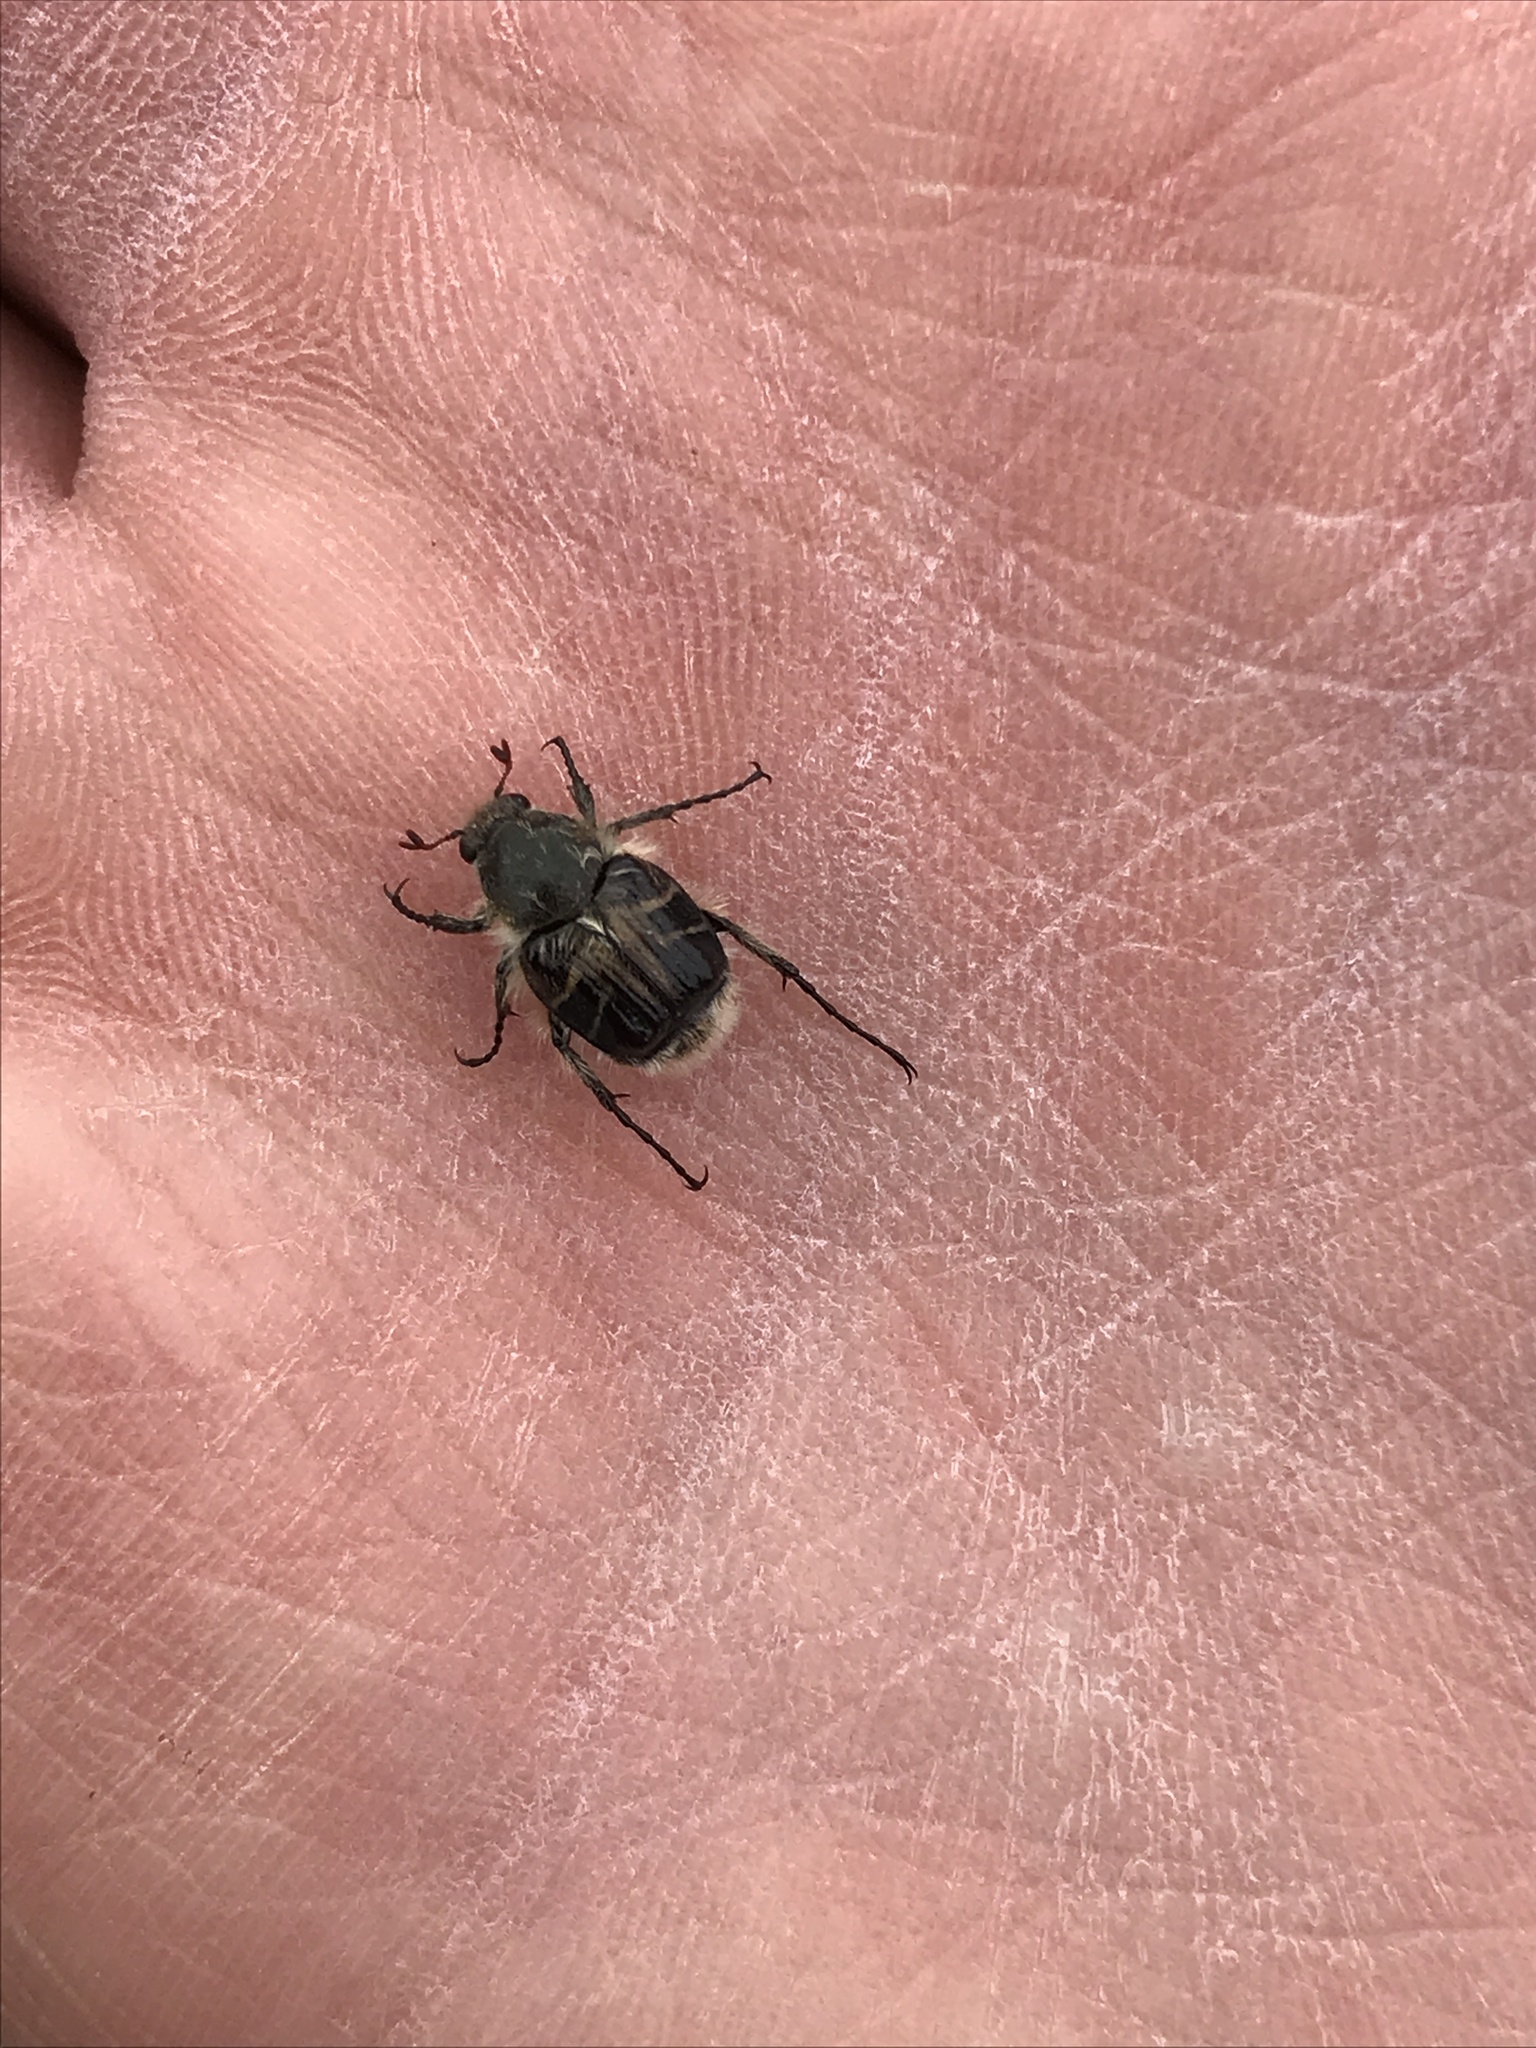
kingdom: Animalia
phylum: Arthropoda
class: Insecta
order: Coleoptera
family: Scarabaeidae
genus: Trichiotinus
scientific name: Trichiotinus assimilis
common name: Bee-mimic beetle
